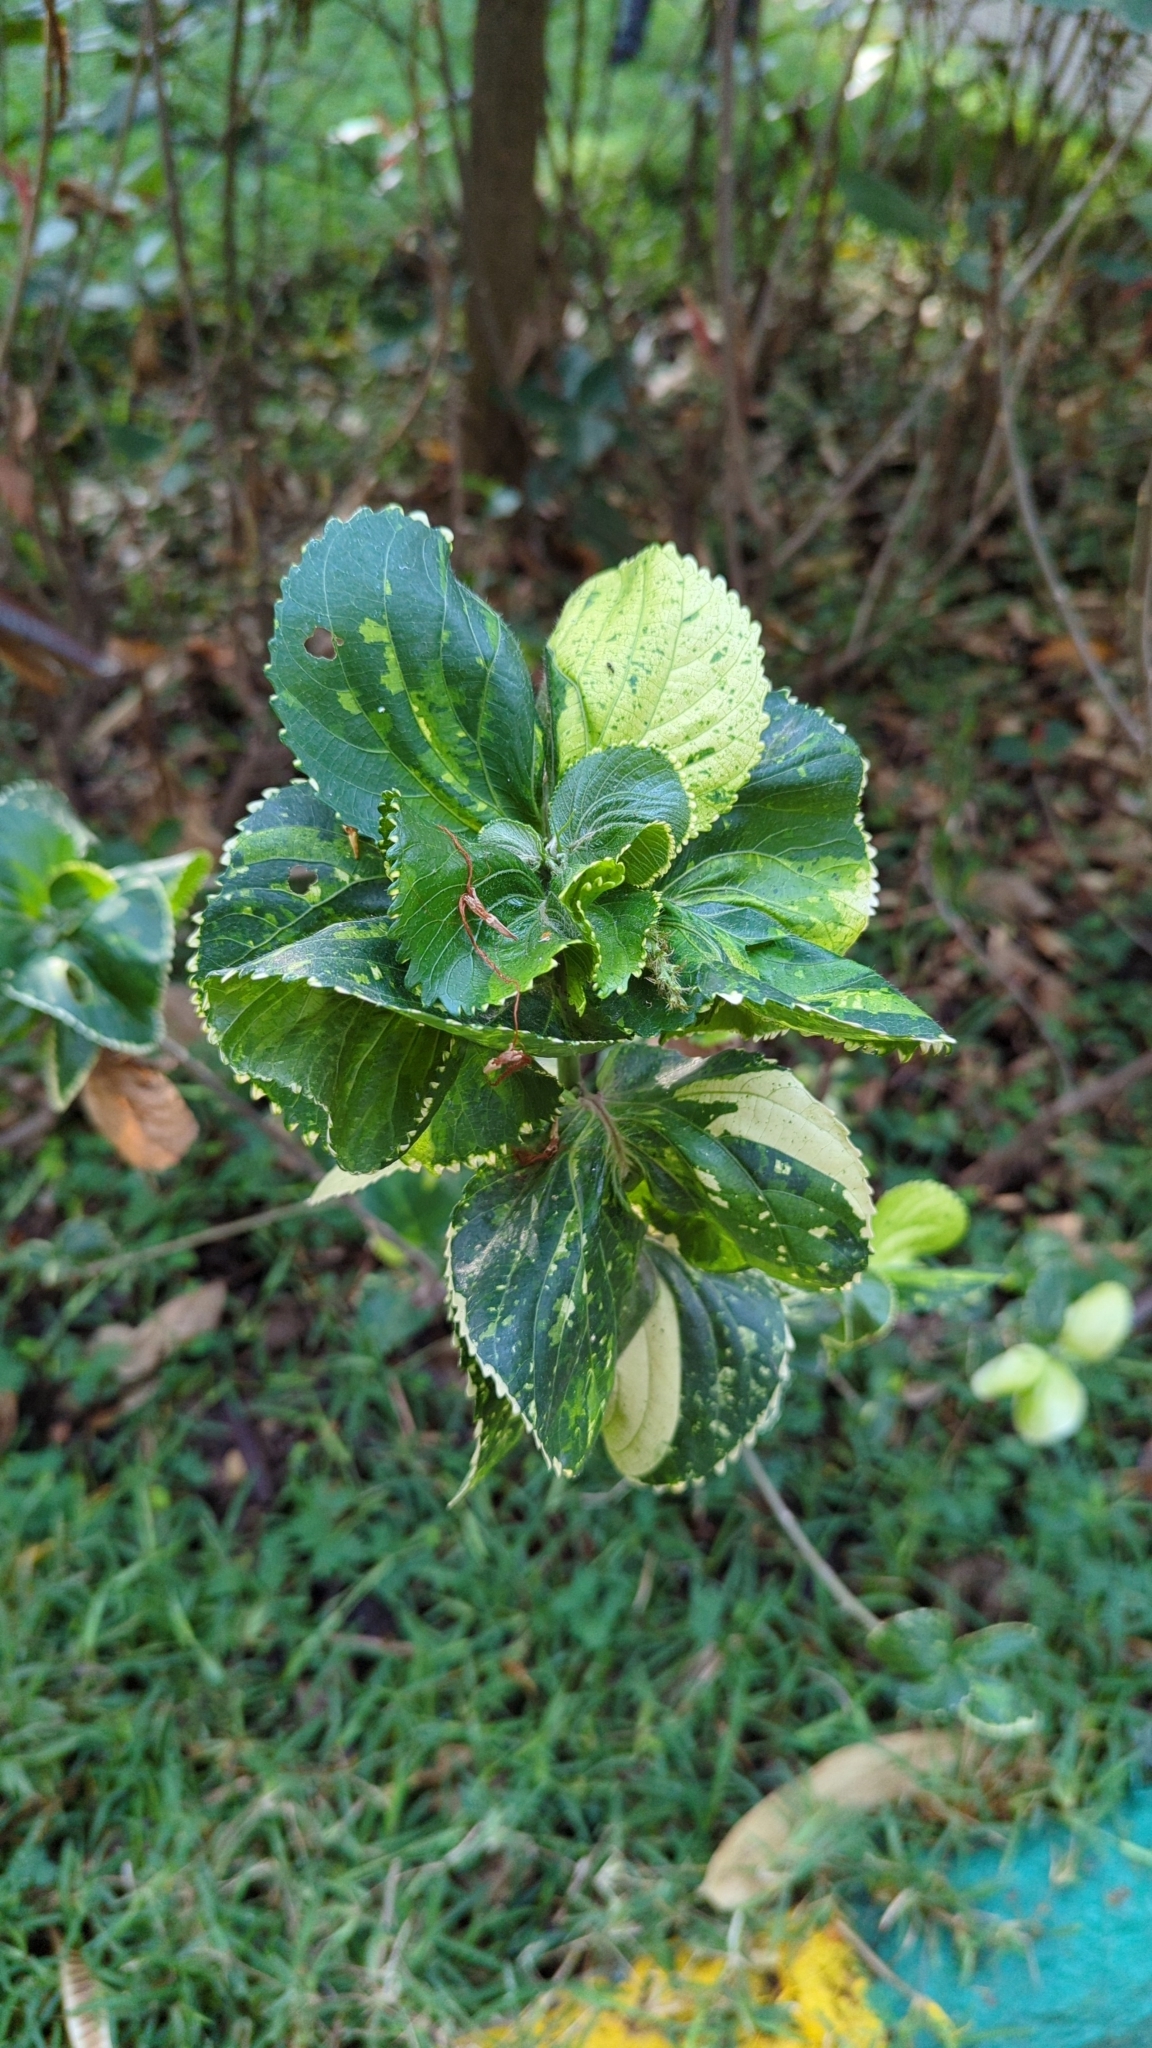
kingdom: Plantae
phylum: Tracheophyta
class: Magnoliopsida
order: Malpighiales
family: Euphorbiaceae
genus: Acalypha
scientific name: Acalypha wilkesiana
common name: Jacob's coat
